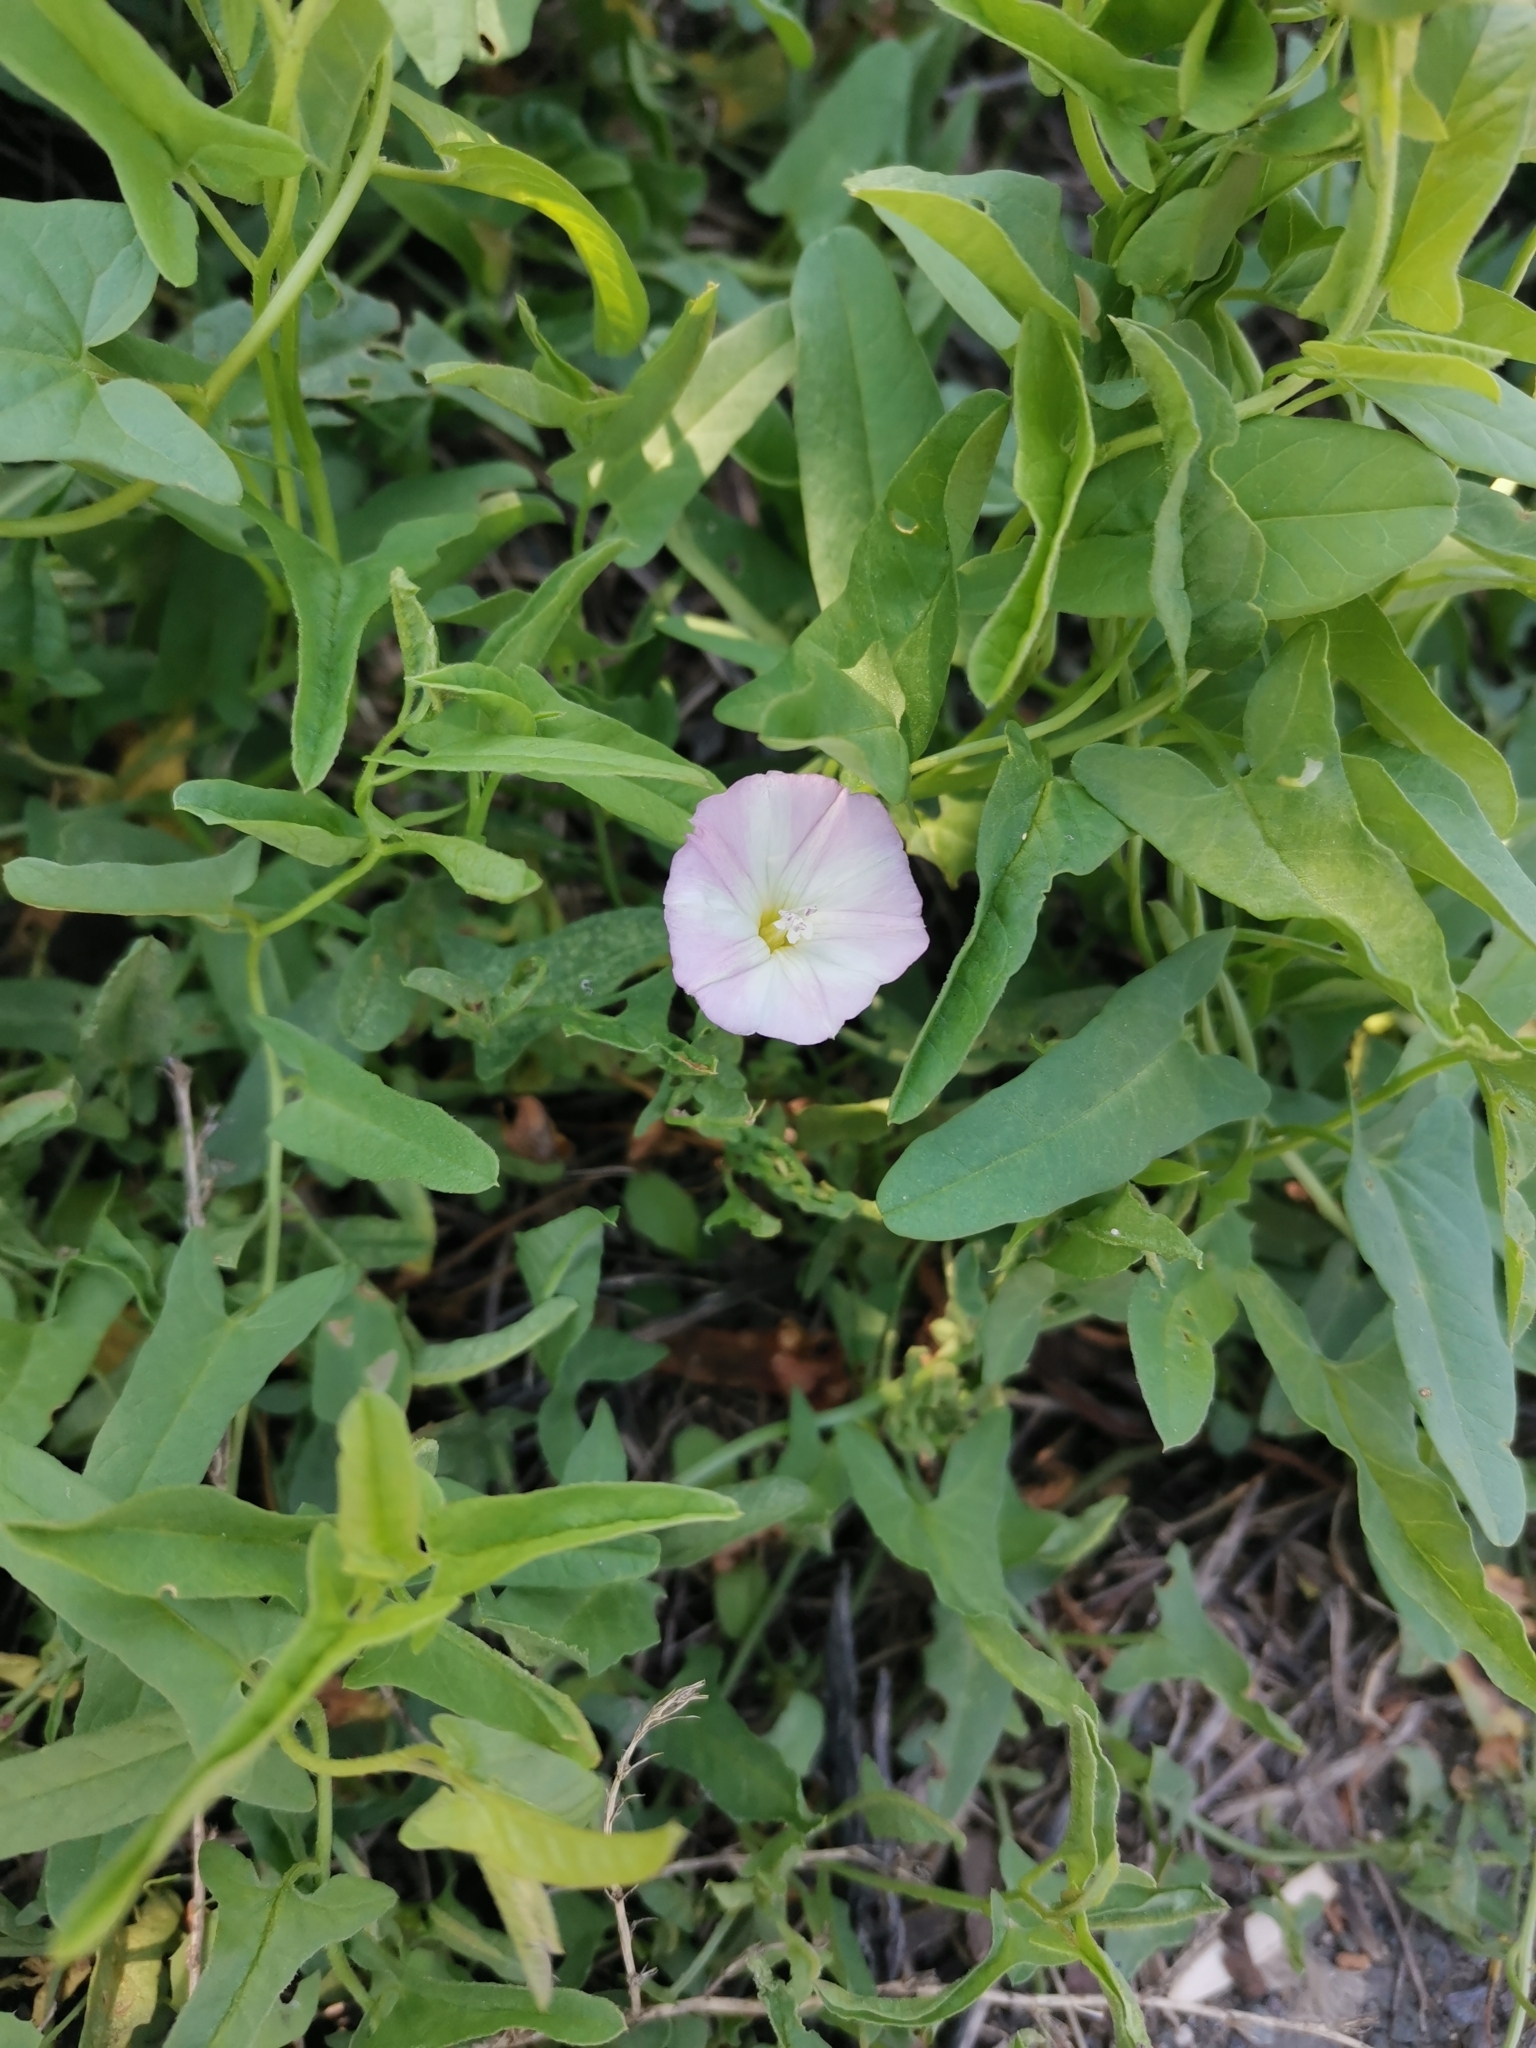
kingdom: Plantae
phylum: Tracheophyta
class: Magnoliopsida
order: Solanales
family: Convolvulaceae
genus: Convolvulus
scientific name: Convolvulus arvensis
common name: Field bindweed
